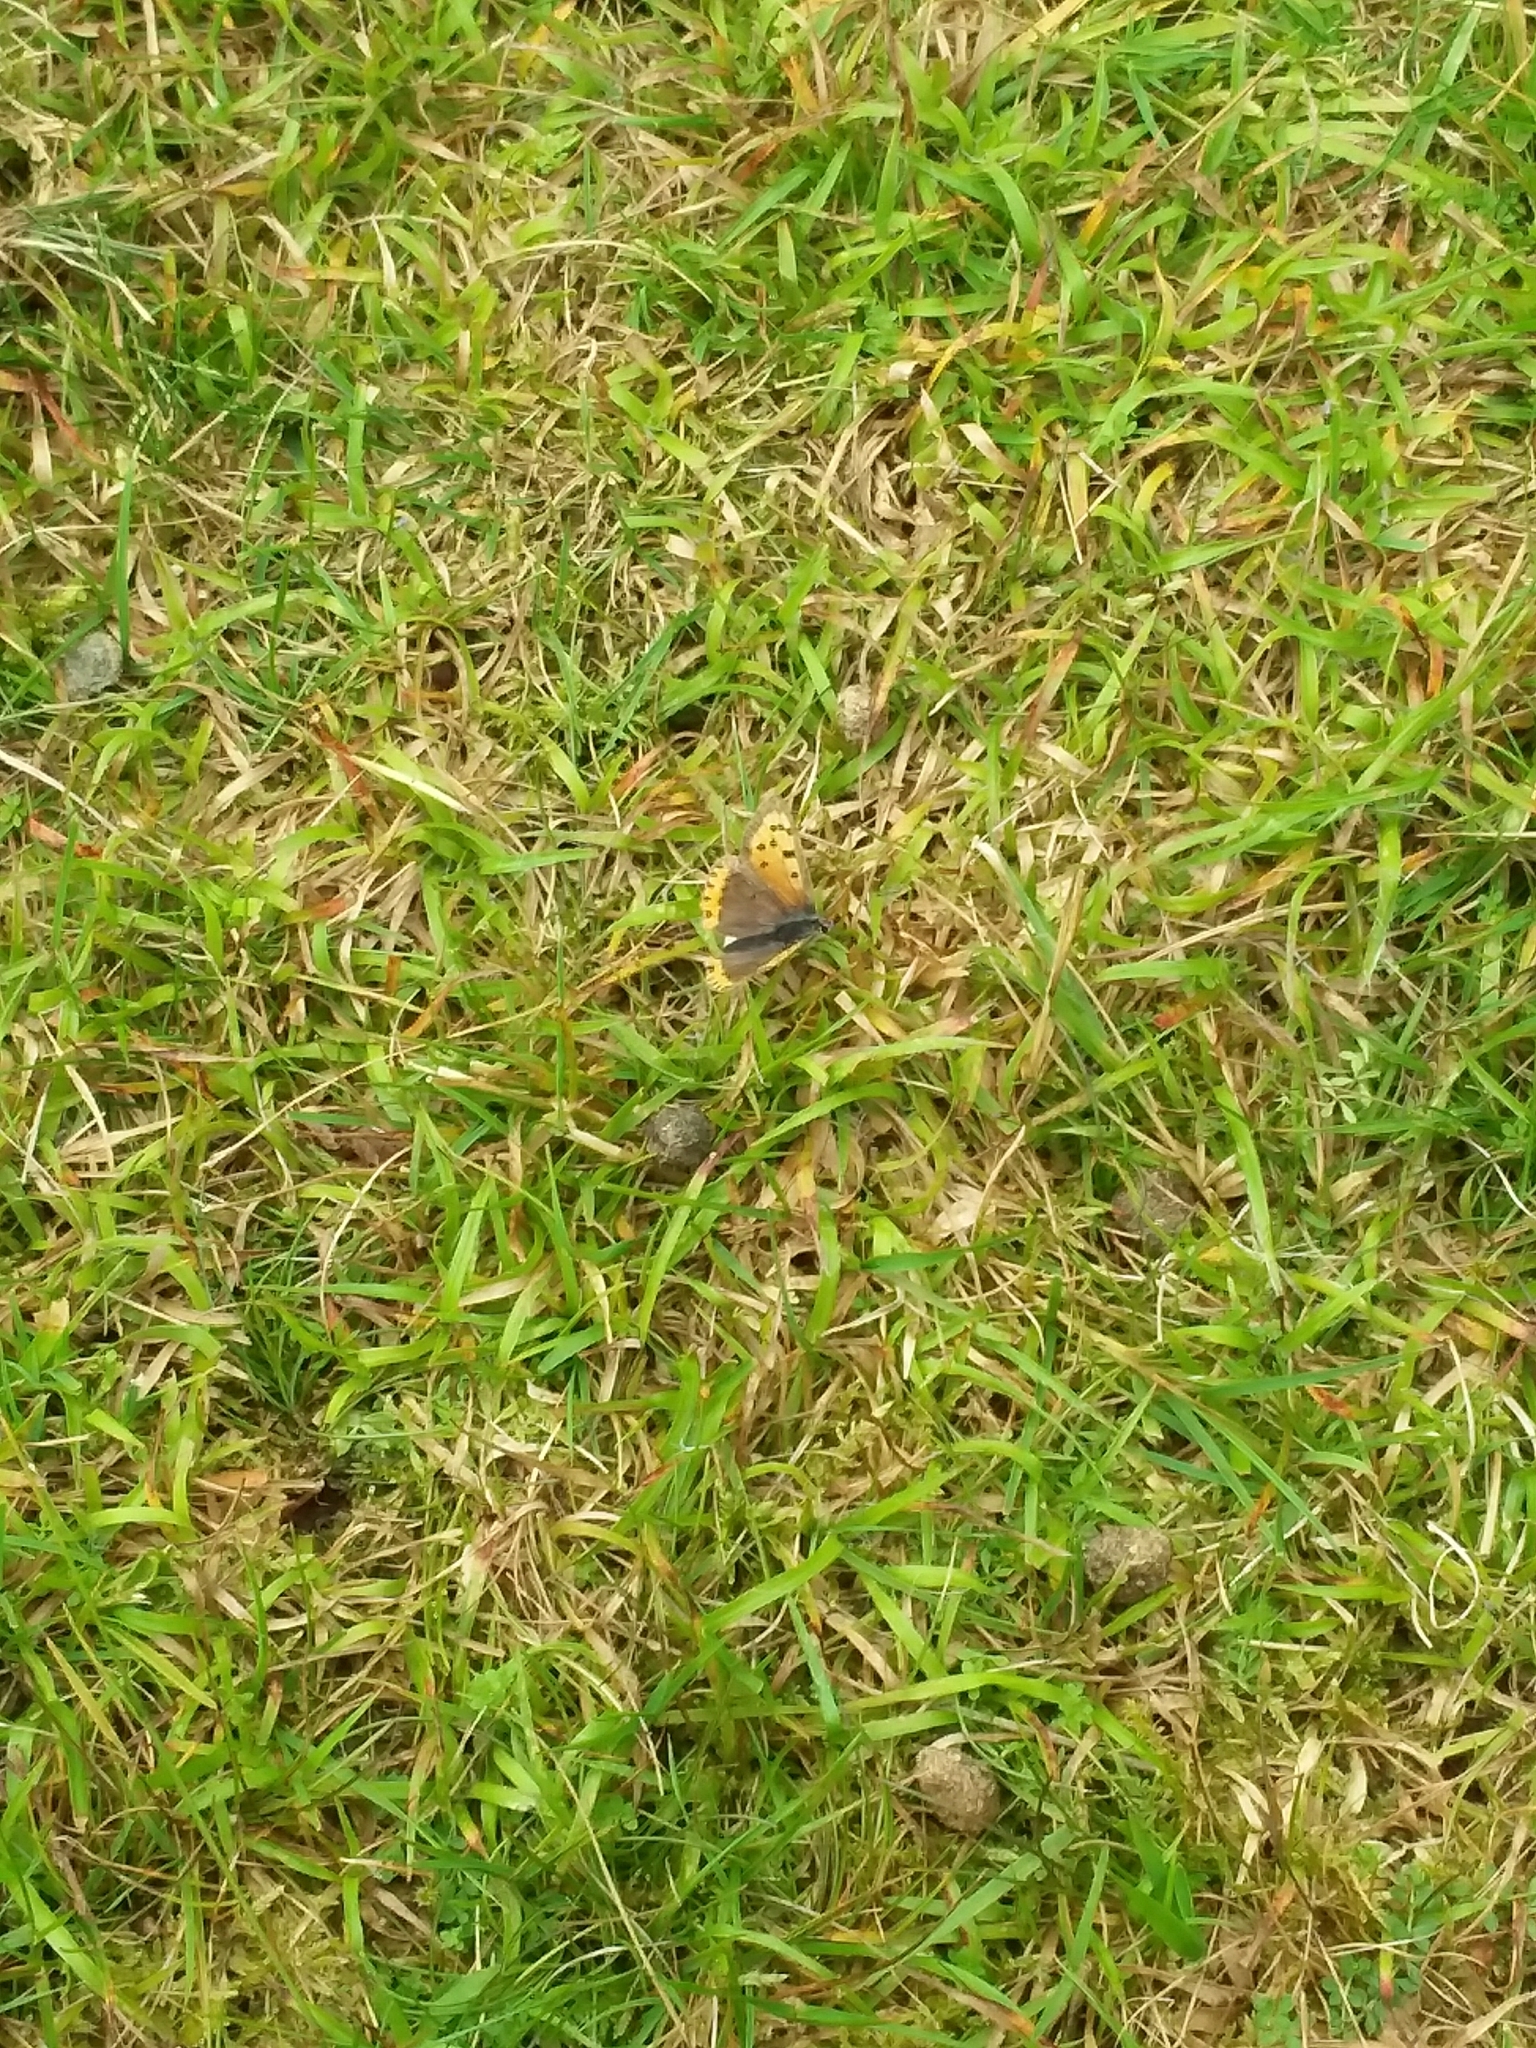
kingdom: Animalia
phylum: Arthropoda
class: Insecta
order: Lepidoptera
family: Lycaenidae
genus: Lycaena
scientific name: Lycaena phlaeas
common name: Small copper
